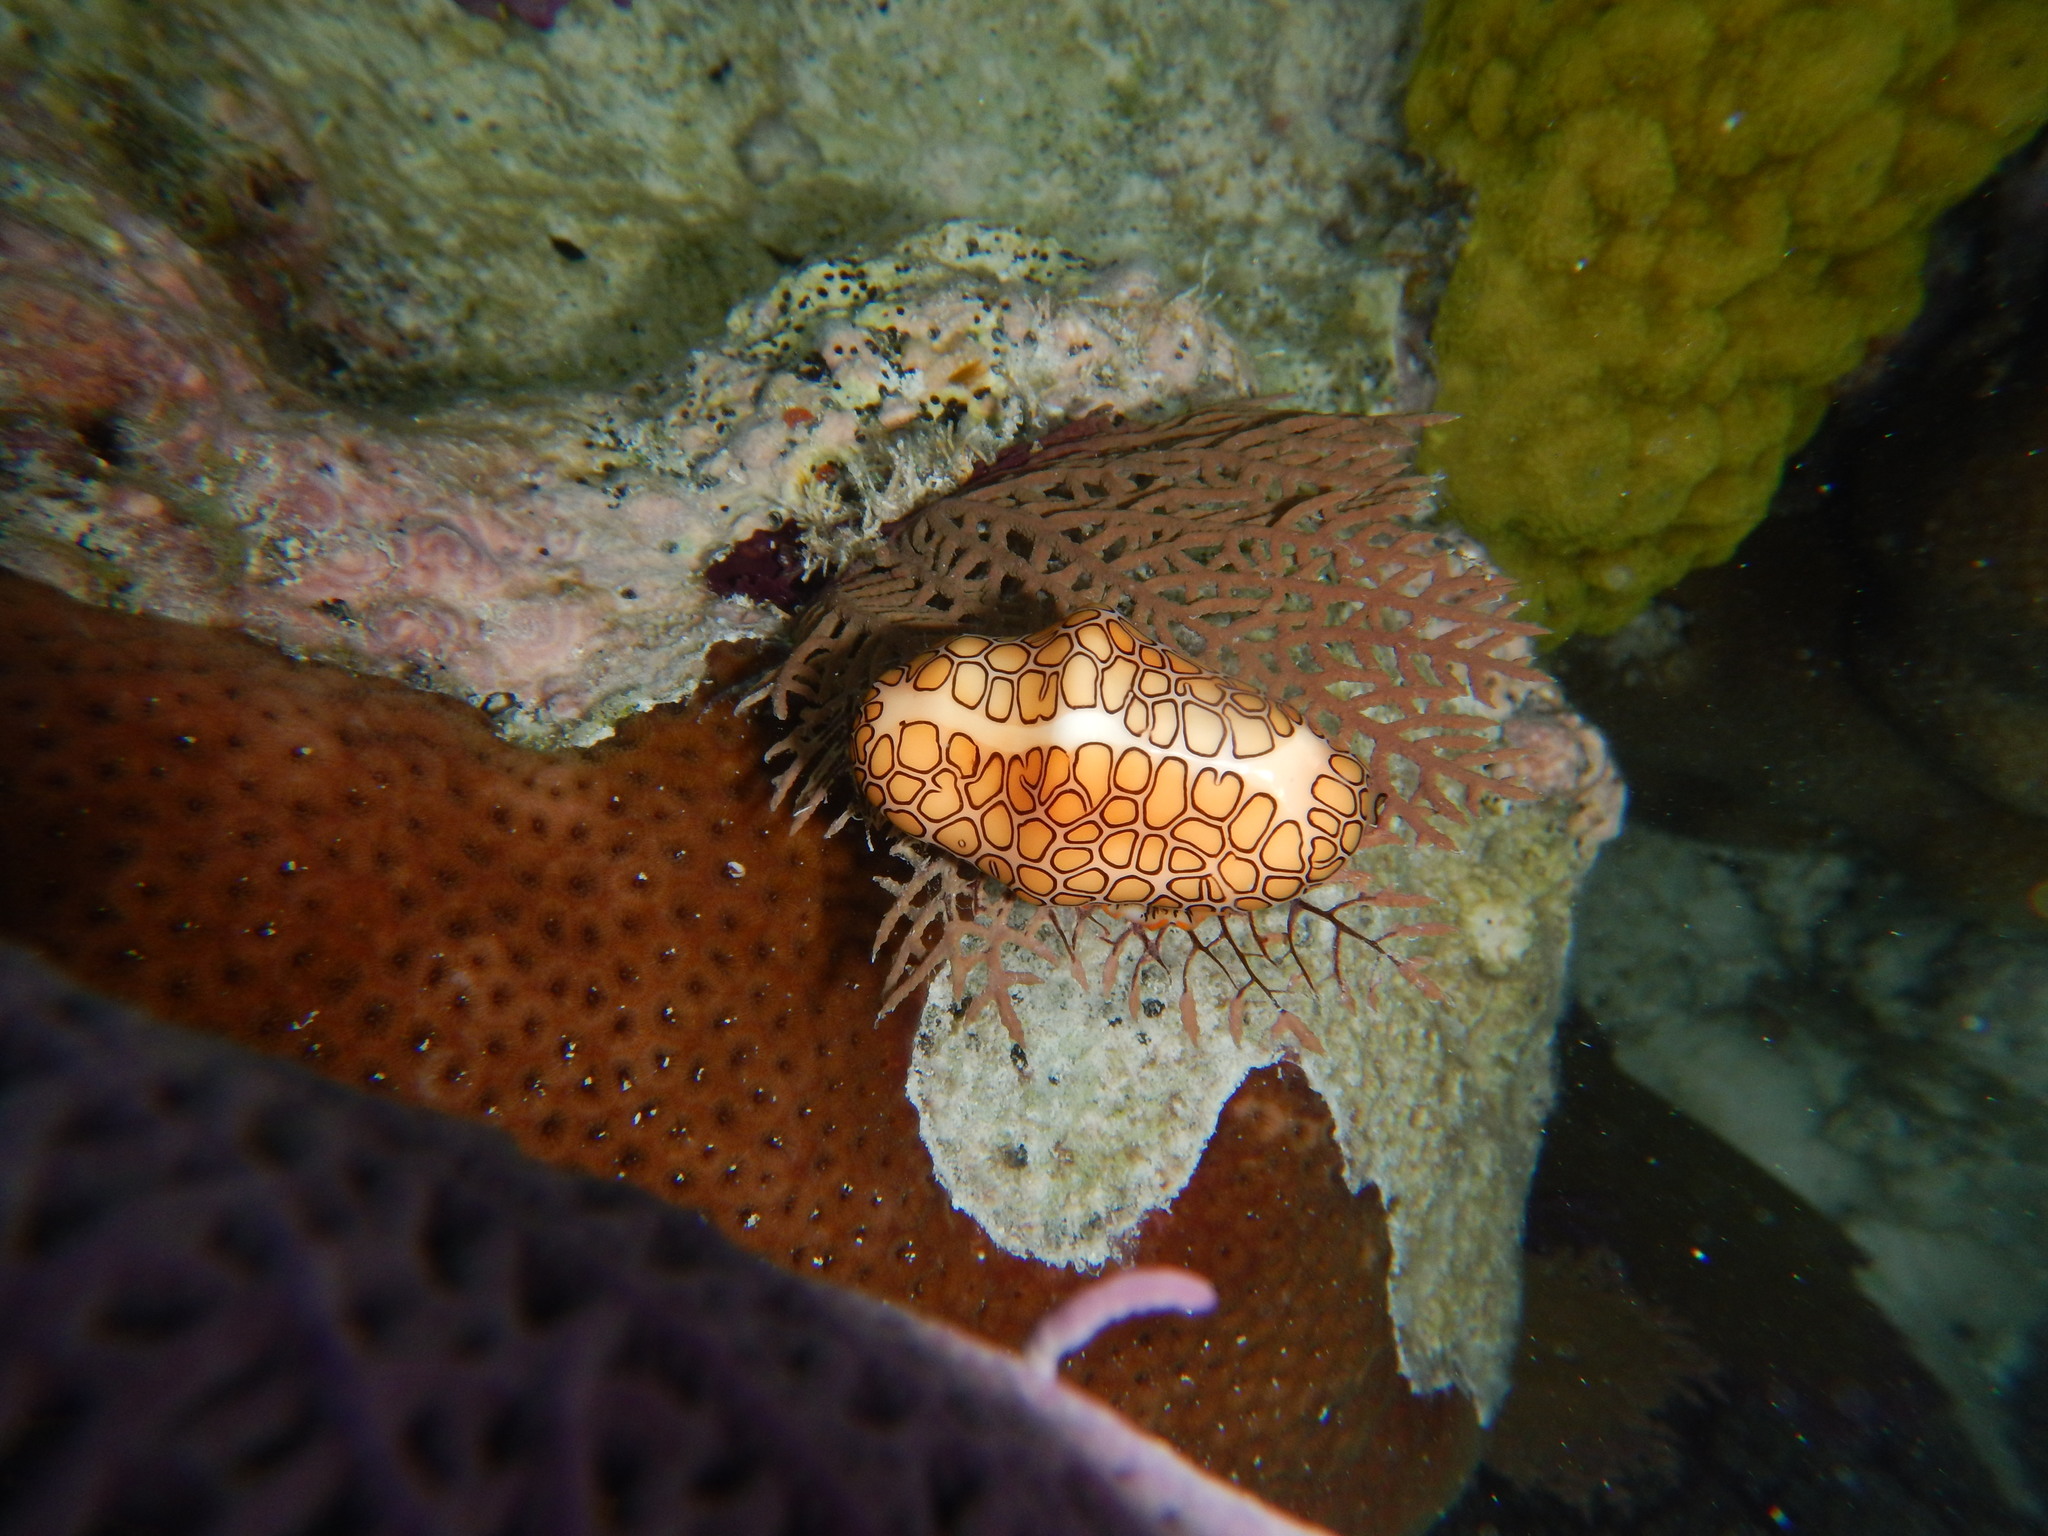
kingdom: Animalia
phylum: Mollusca
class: Gastropoda
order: Littorinimorpha
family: Ovulidae
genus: Cyphoma
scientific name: Cyphoma gibbosum
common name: Flamingo tongue
